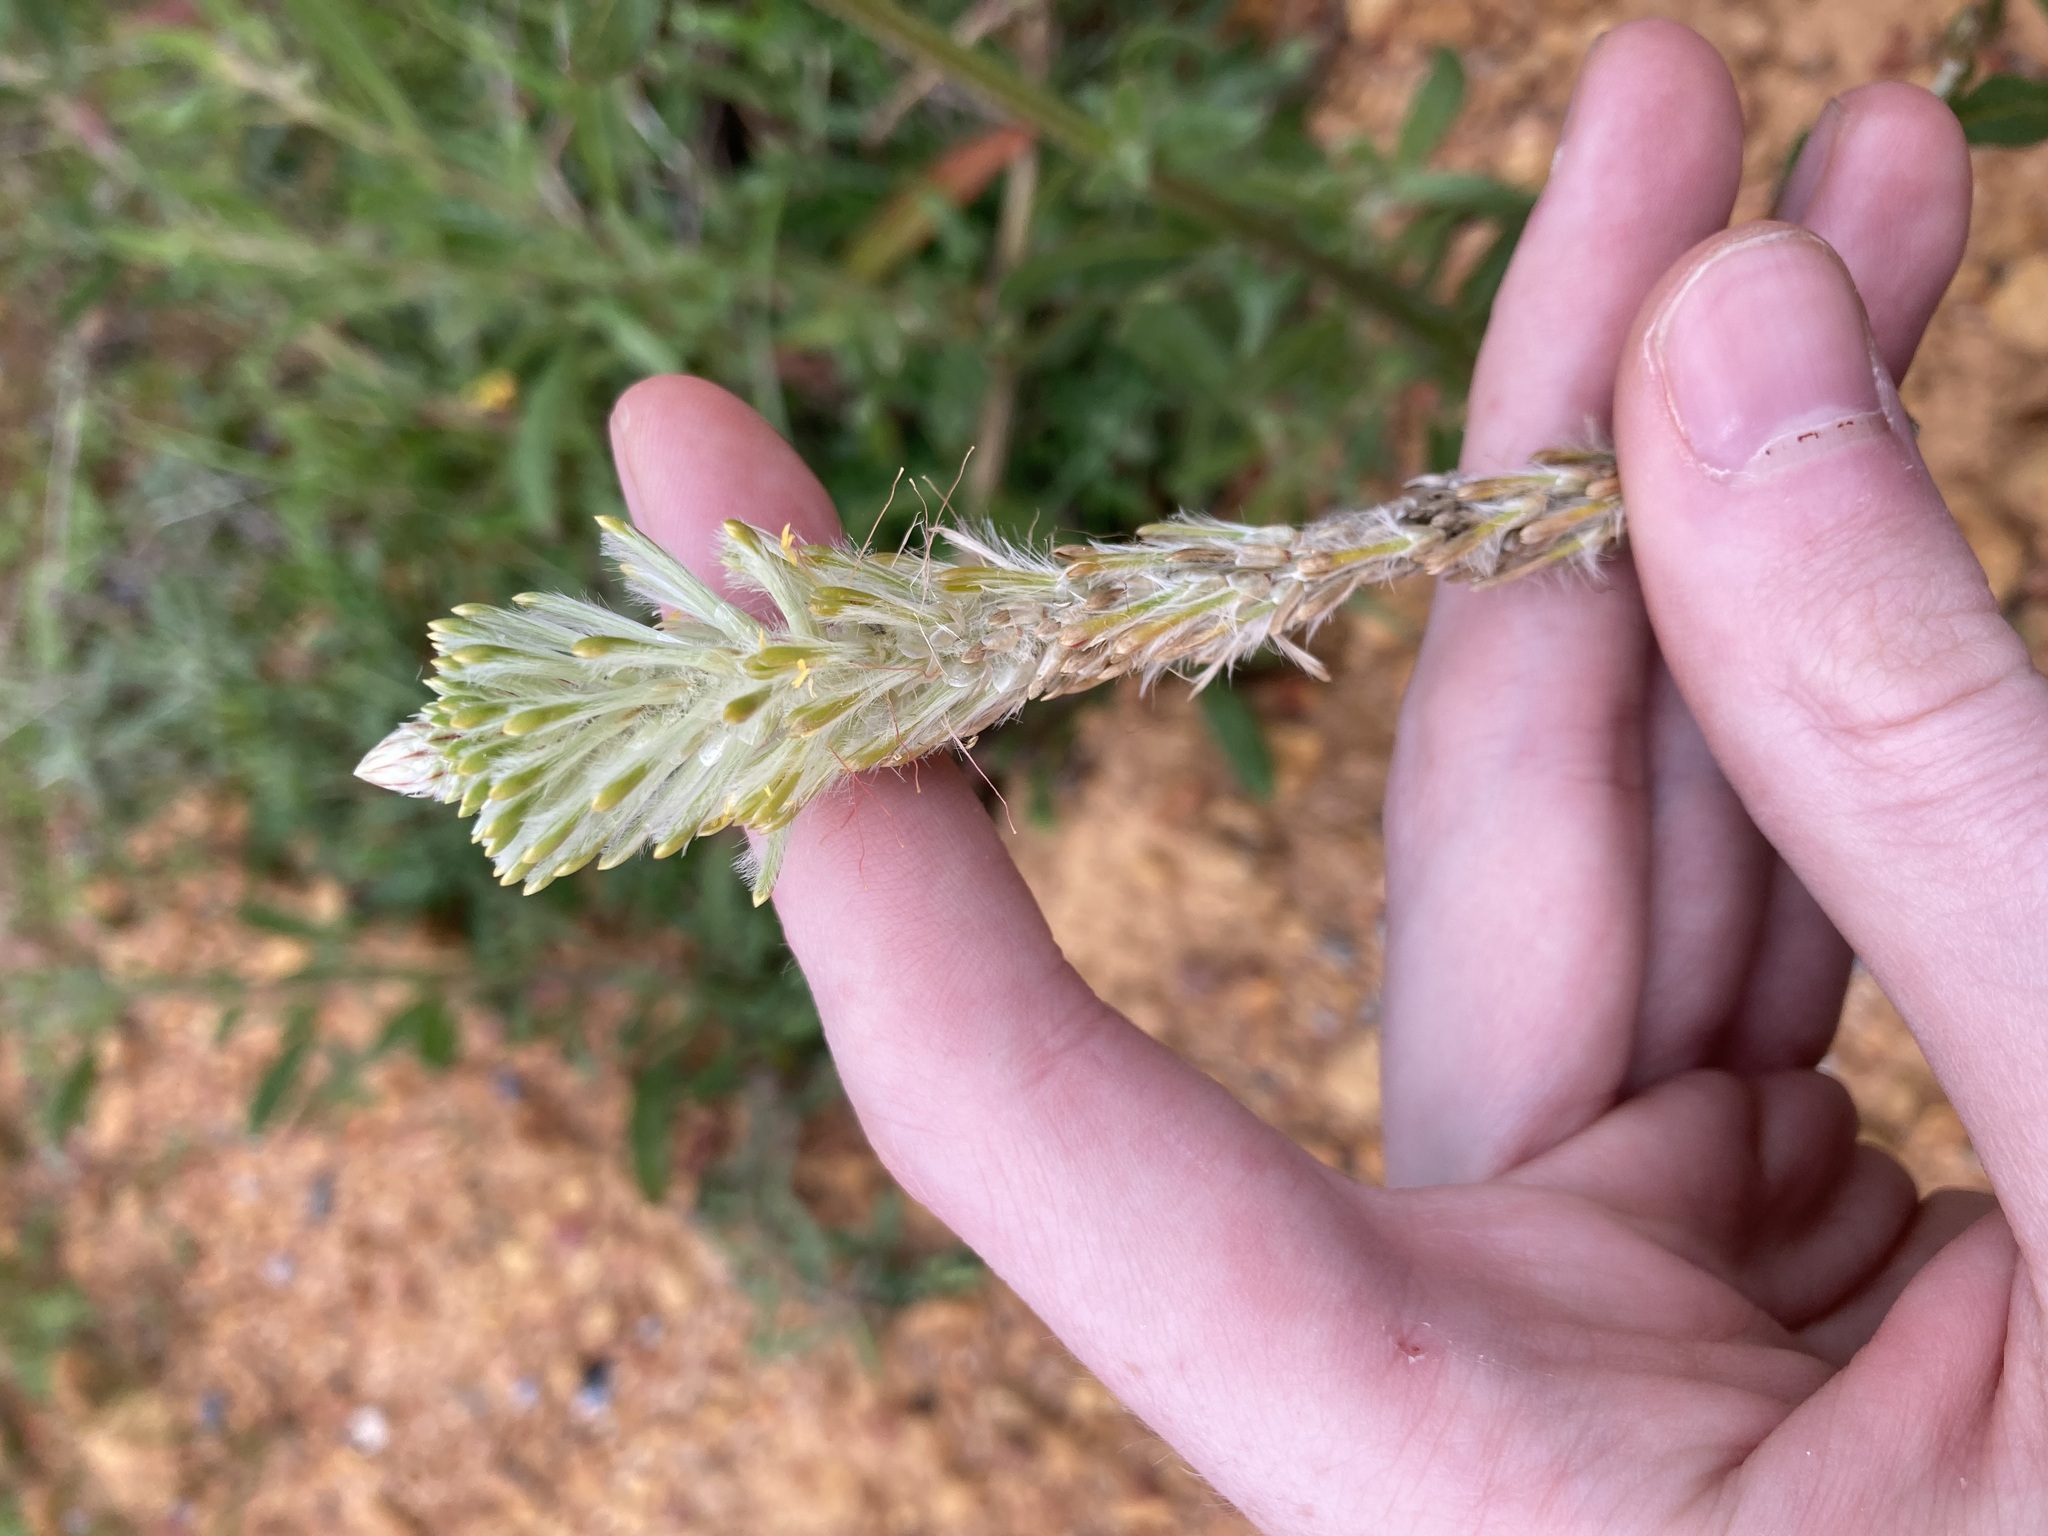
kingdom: Plantae
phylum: Tracheophyta
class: Magnoliopsida
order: Caryophyllales
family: Amaranthaceae
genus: Ptilotus
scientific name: Ptilotus polystachyus
